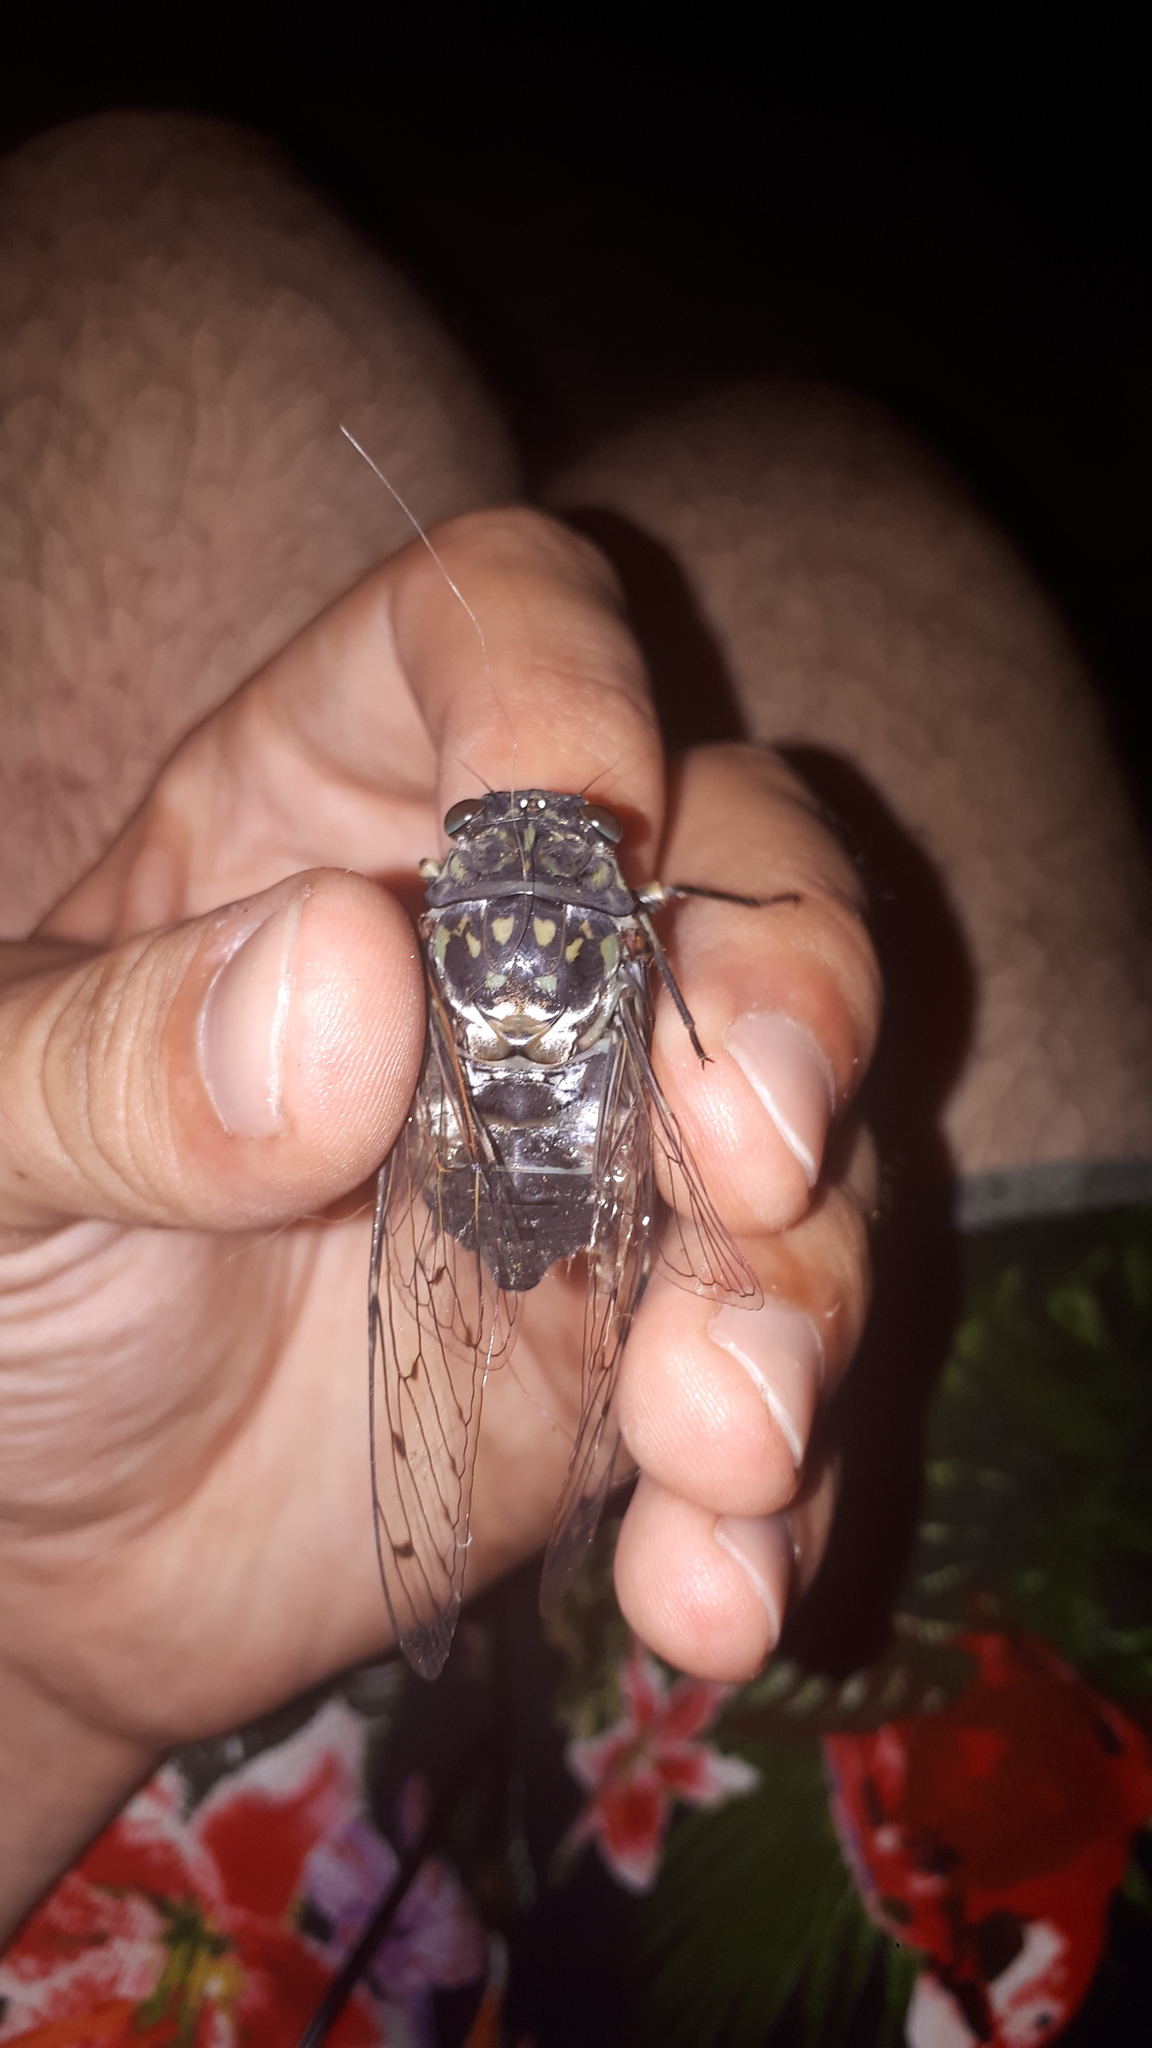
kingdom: Animalia
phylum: Arthropoda
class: Insecta
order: Hemiptera
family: Cicadidae
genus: Hyalessa
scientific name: Hyalessa maculaticollis
